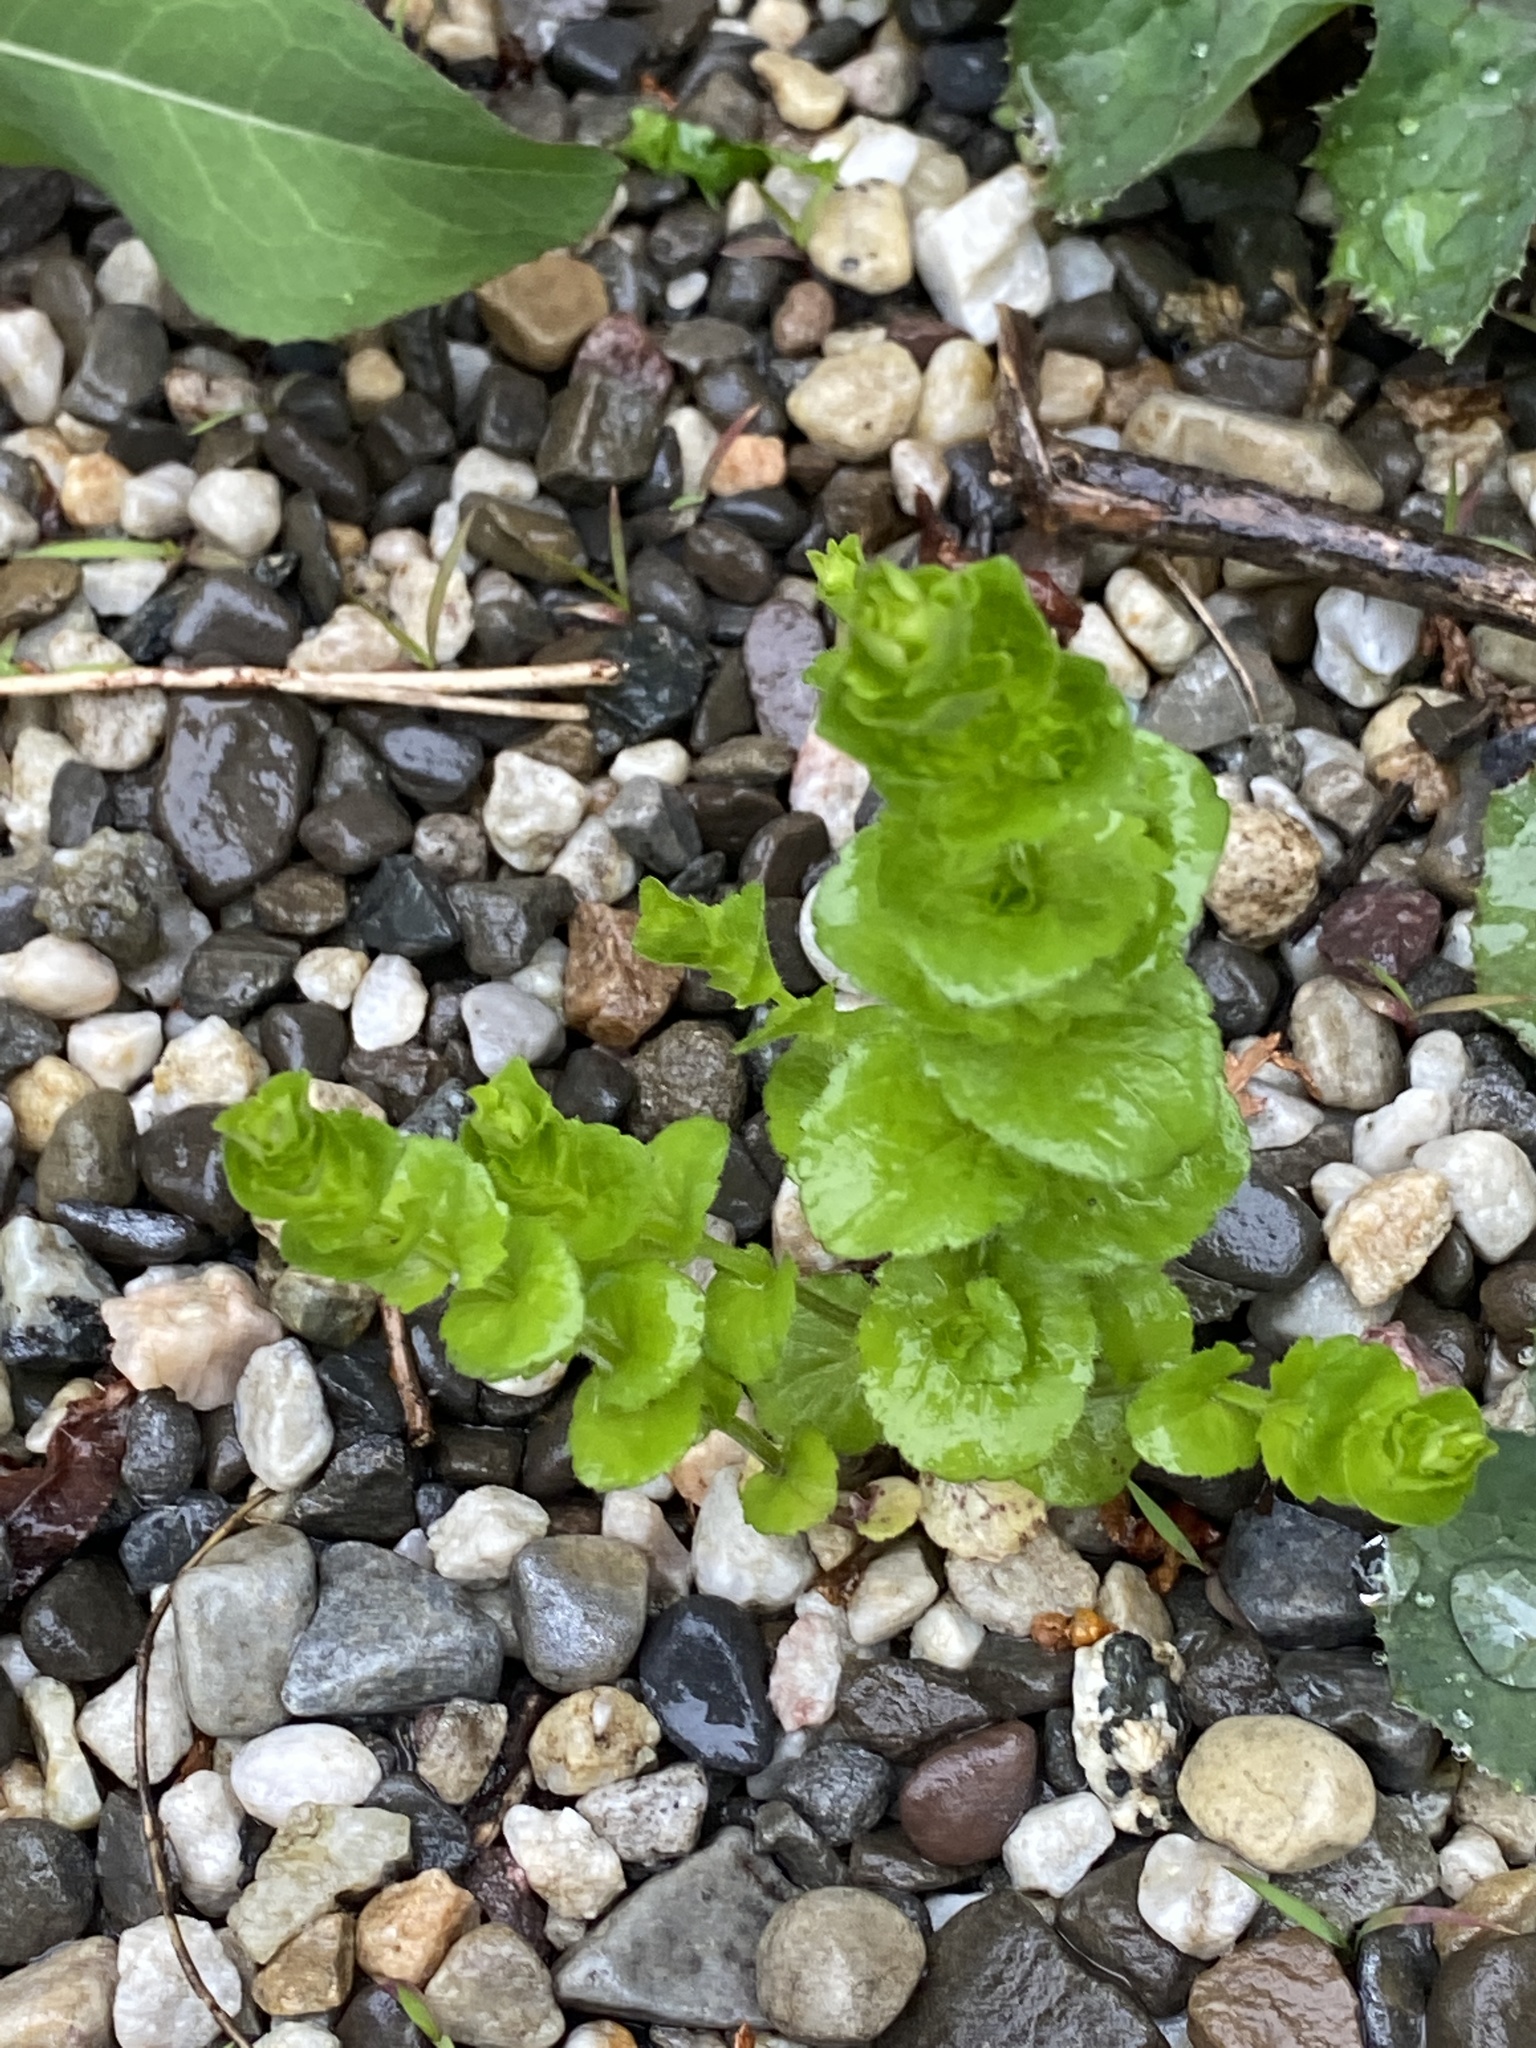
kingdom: Plantae
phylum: Tracheophyta
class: Magnoliopsida
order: Asterales
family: Campanulaceae
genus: Triodanis
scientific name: Triodanis perfoliata
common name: Clasping venus' looking-glass
